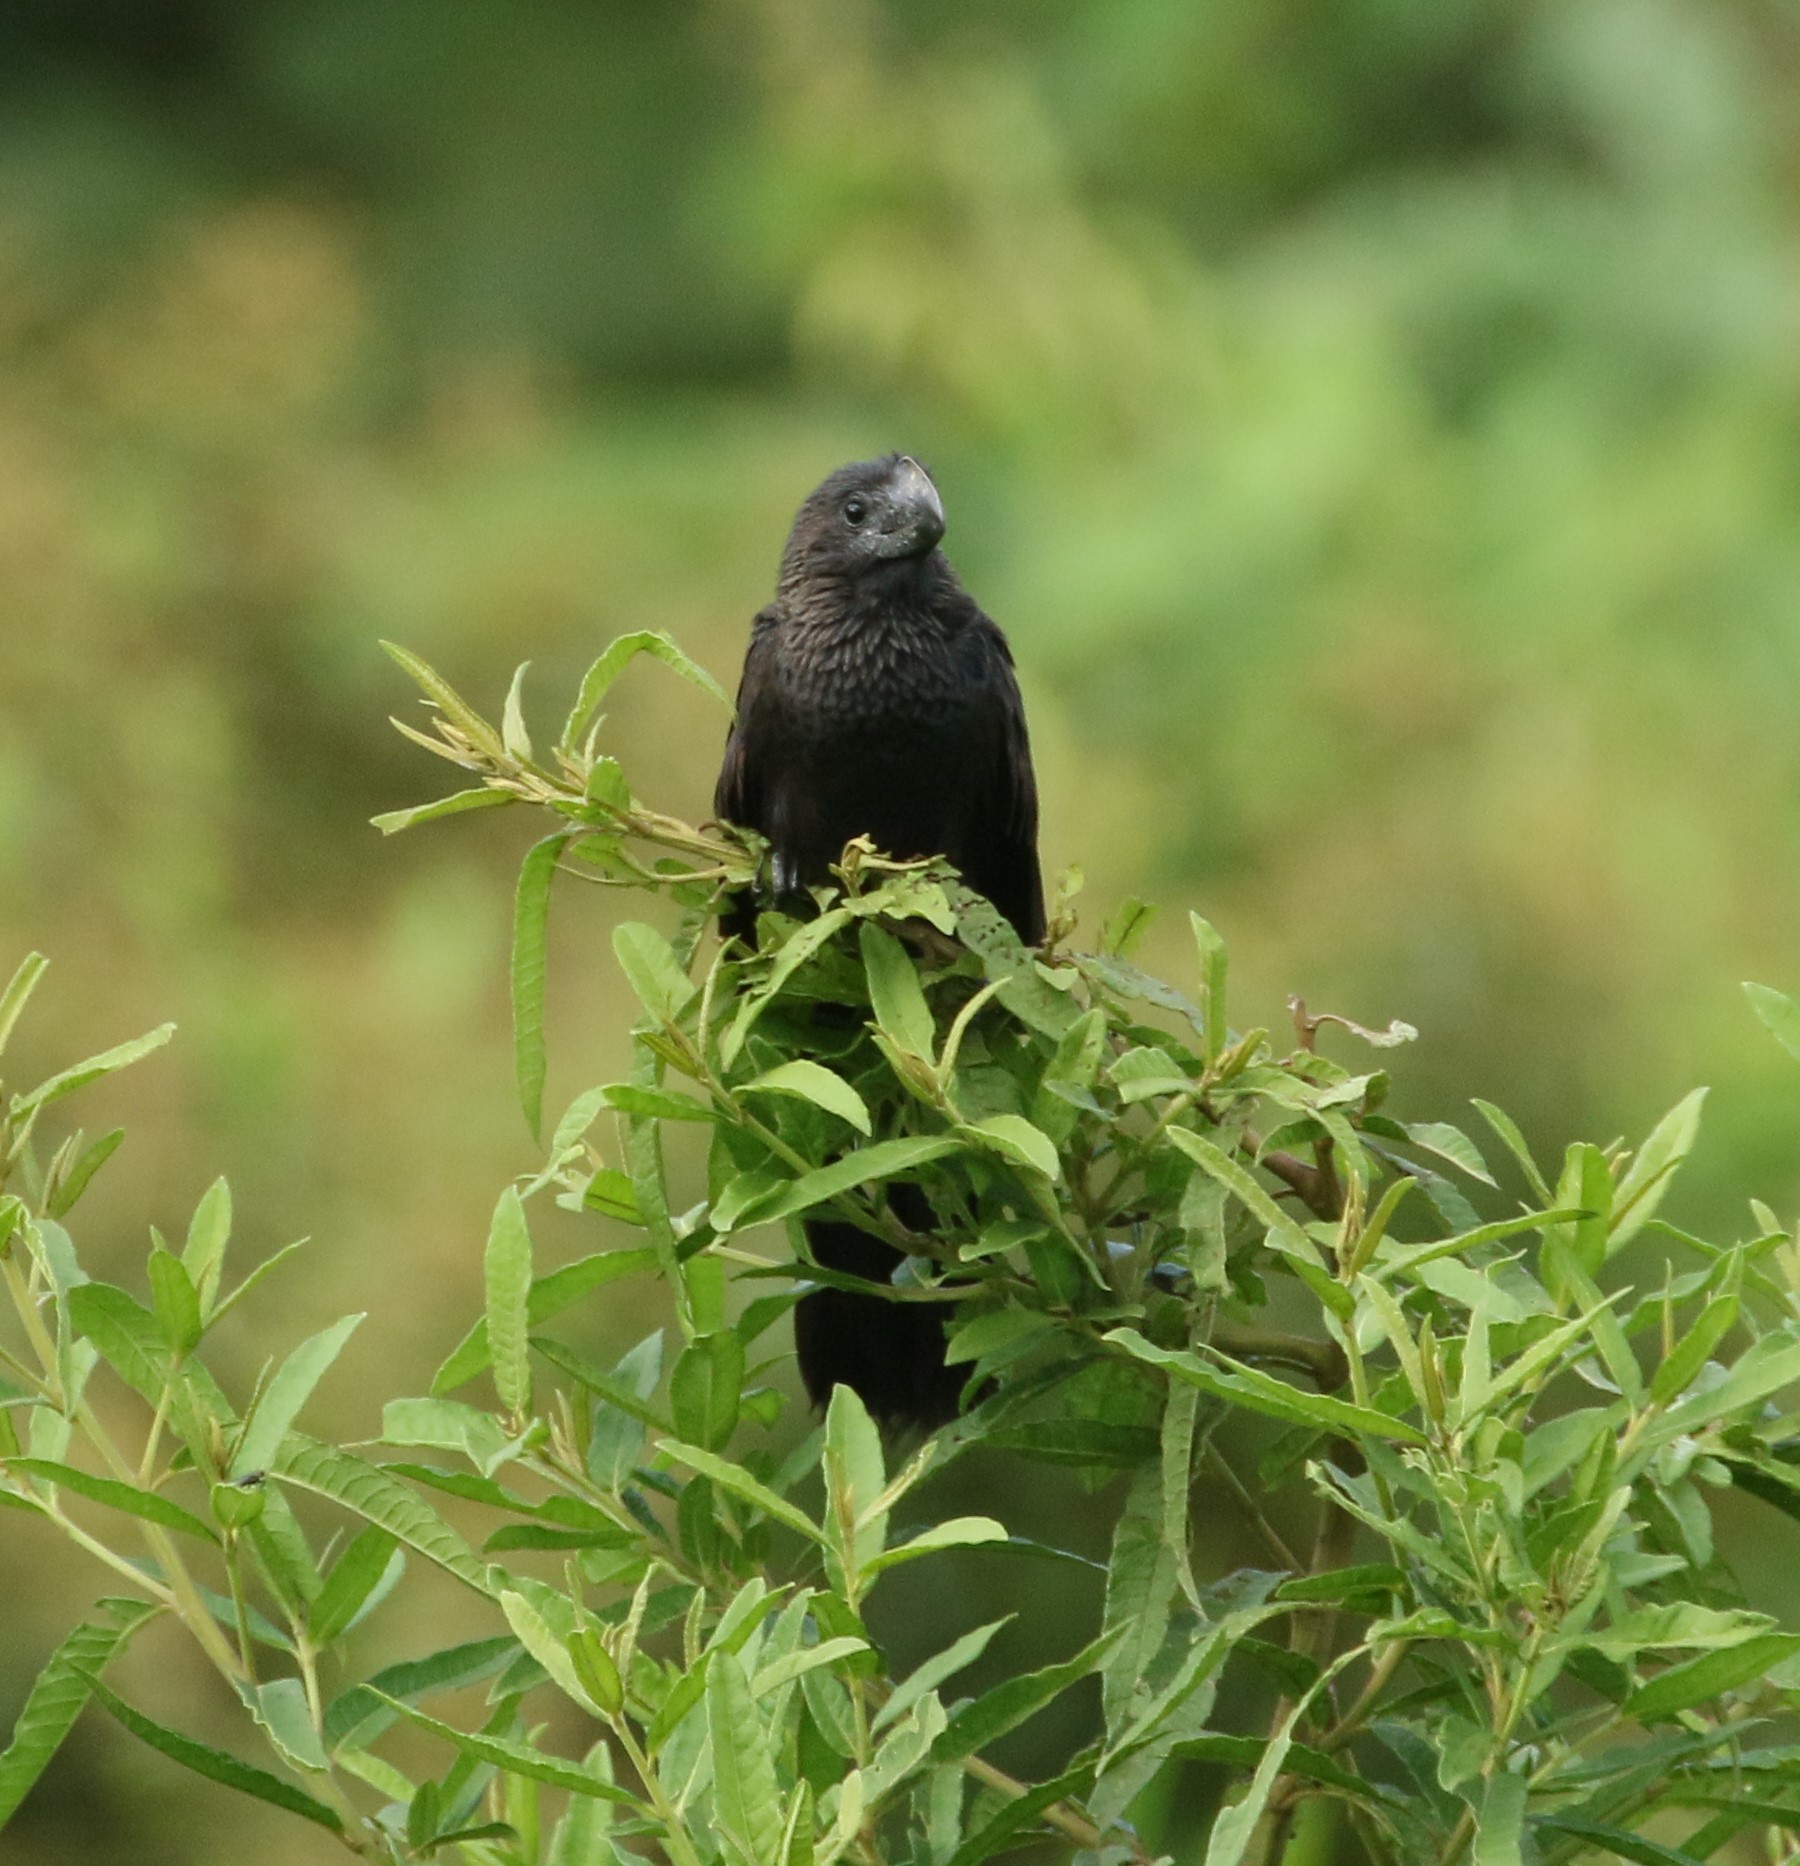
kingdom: Animalia
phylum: Chordata
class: Aves
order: Cuculiformes
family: Cuculidae
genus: Crotophaga
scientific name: Crotophaga ani
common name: Smooth-billed ani
